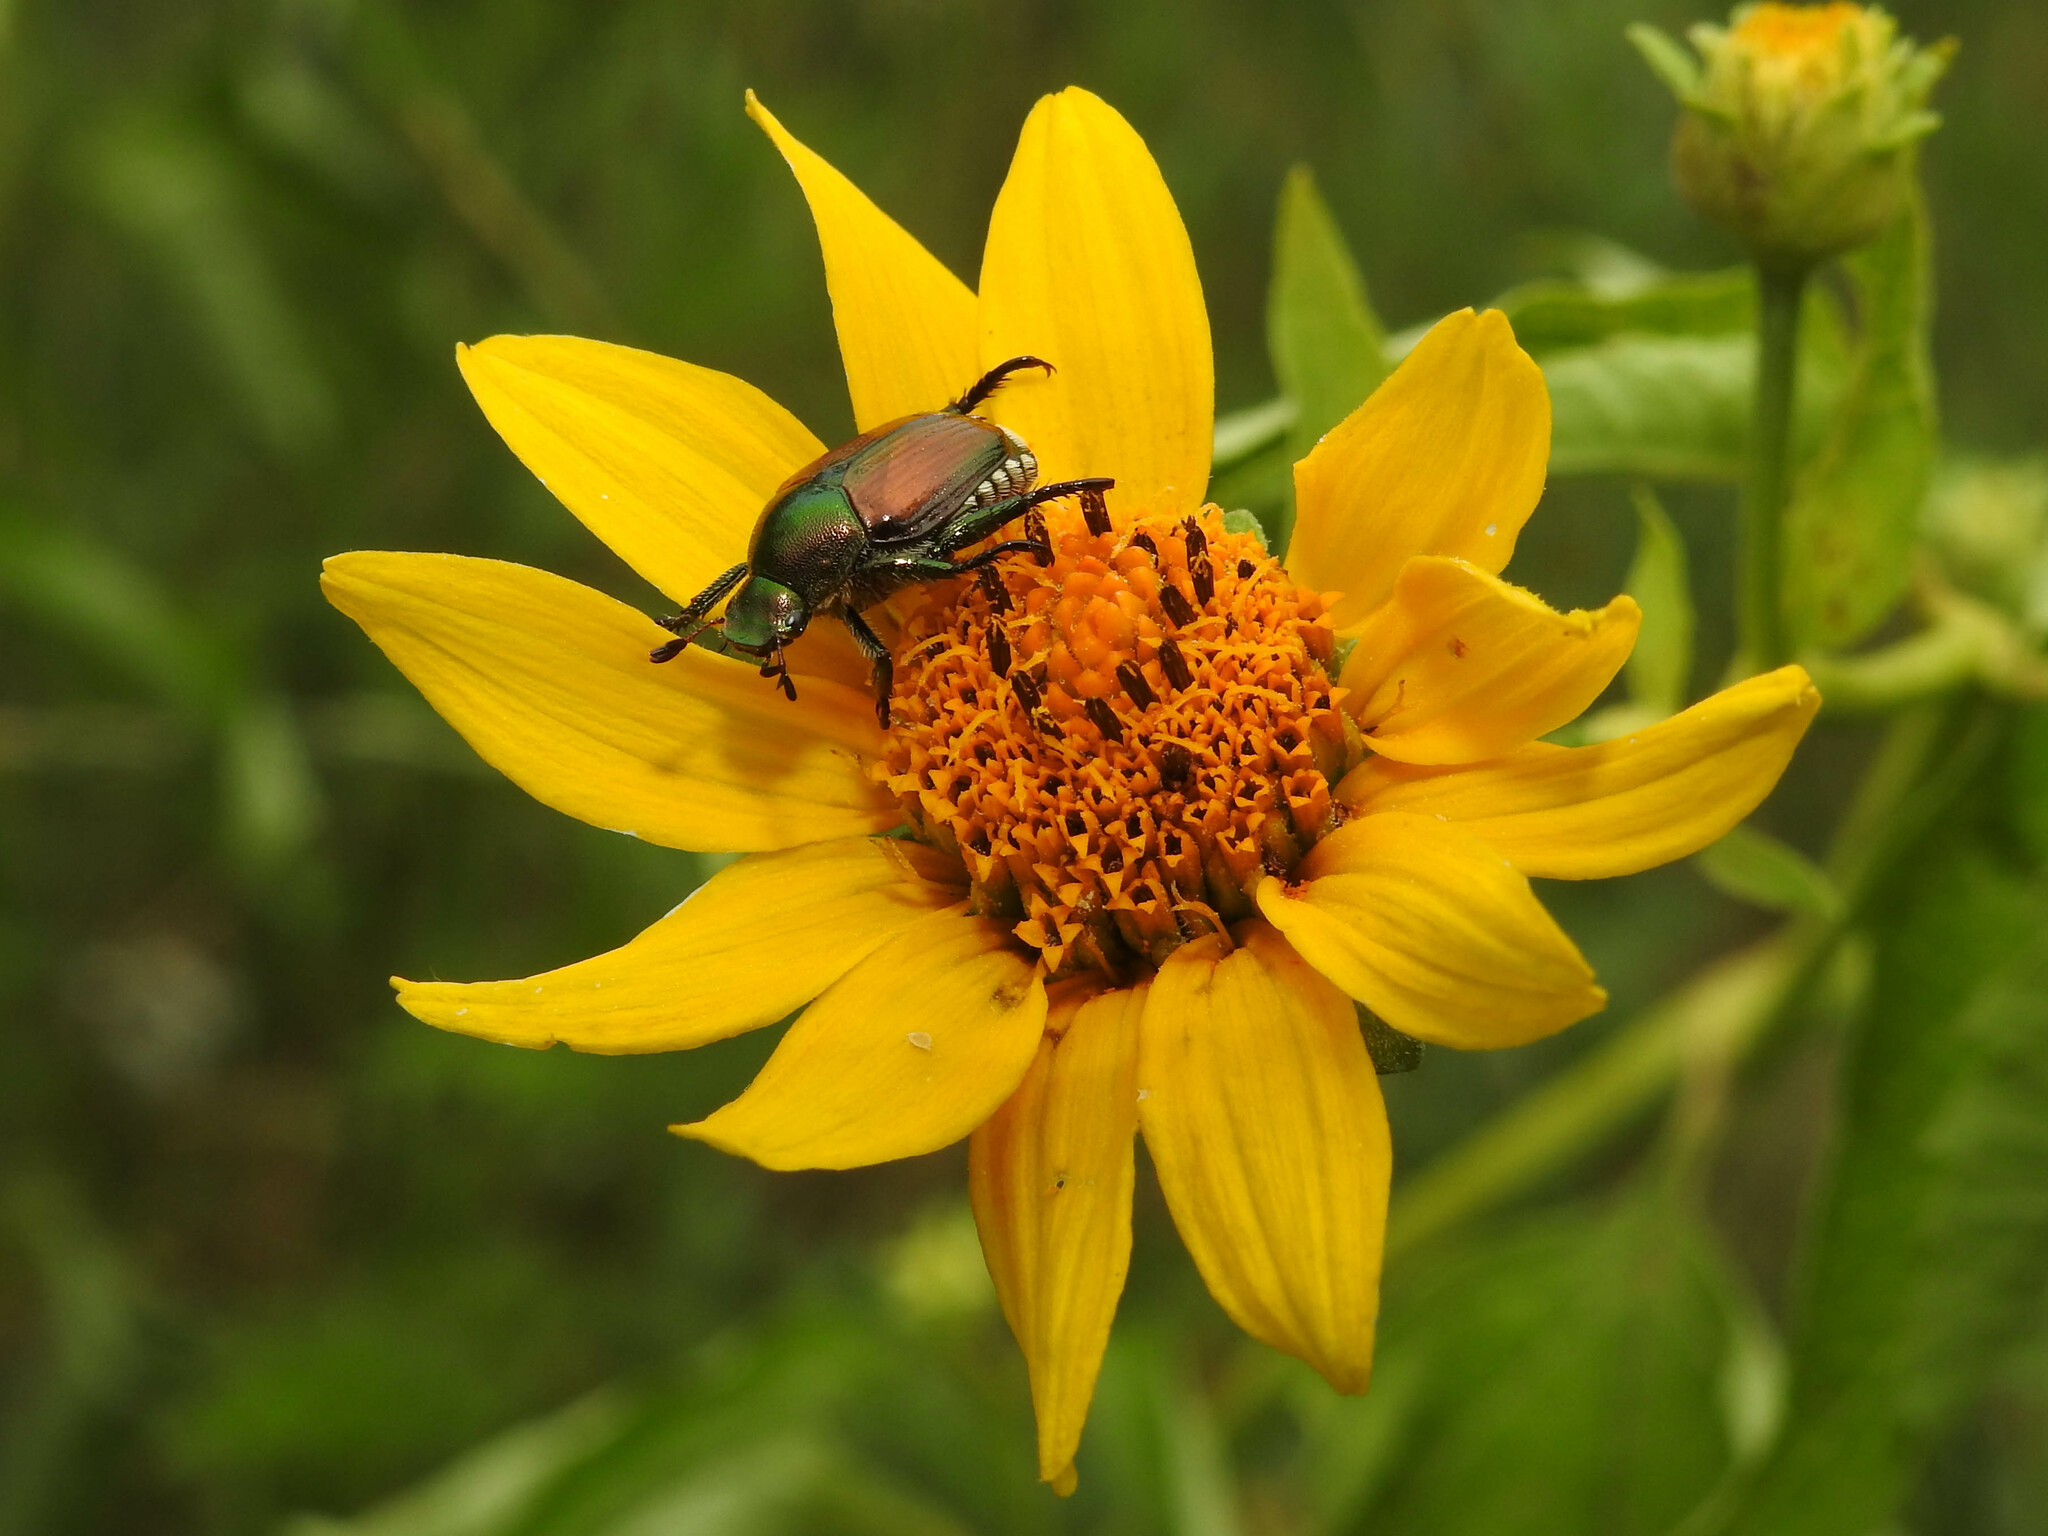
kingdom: Animalia
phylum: Arthropoda
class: Insecta
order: Coleoptera
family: Scarabaeidae
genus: Popillia
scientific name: Popillia japonica
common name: Japanese beetle
